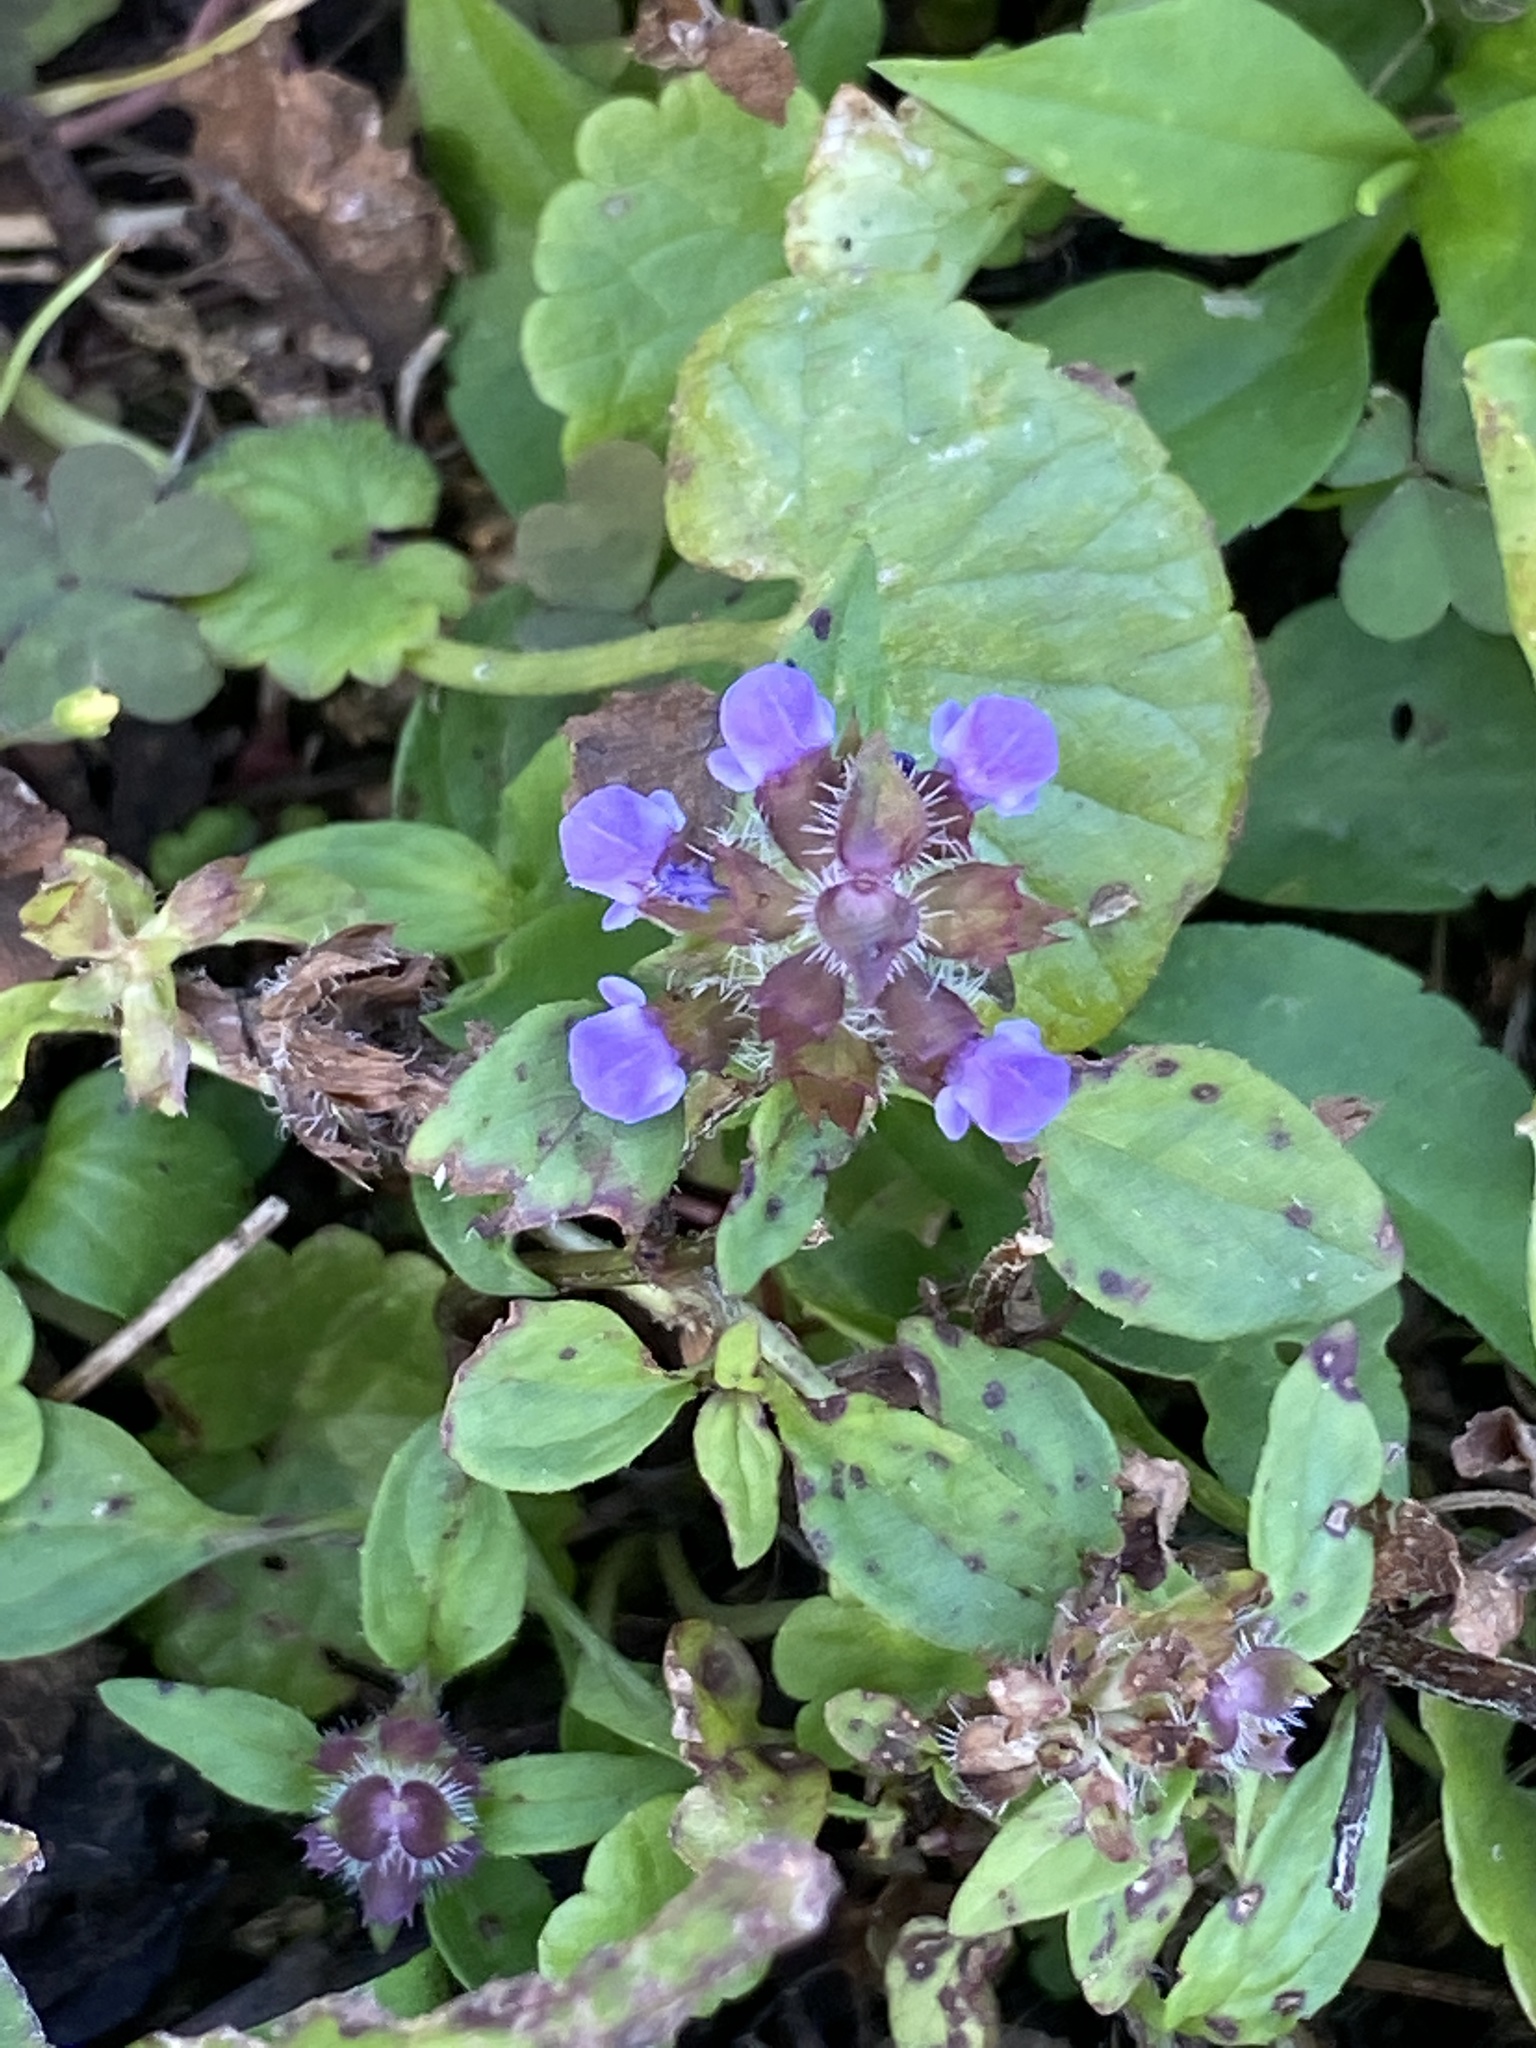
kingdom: Plantae
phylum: Tracheophyta
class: Magnoliopsida
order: Lamiales
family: Lamiaceae
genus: Prunella
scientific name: Prunella vulgaris
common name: Heal-all
